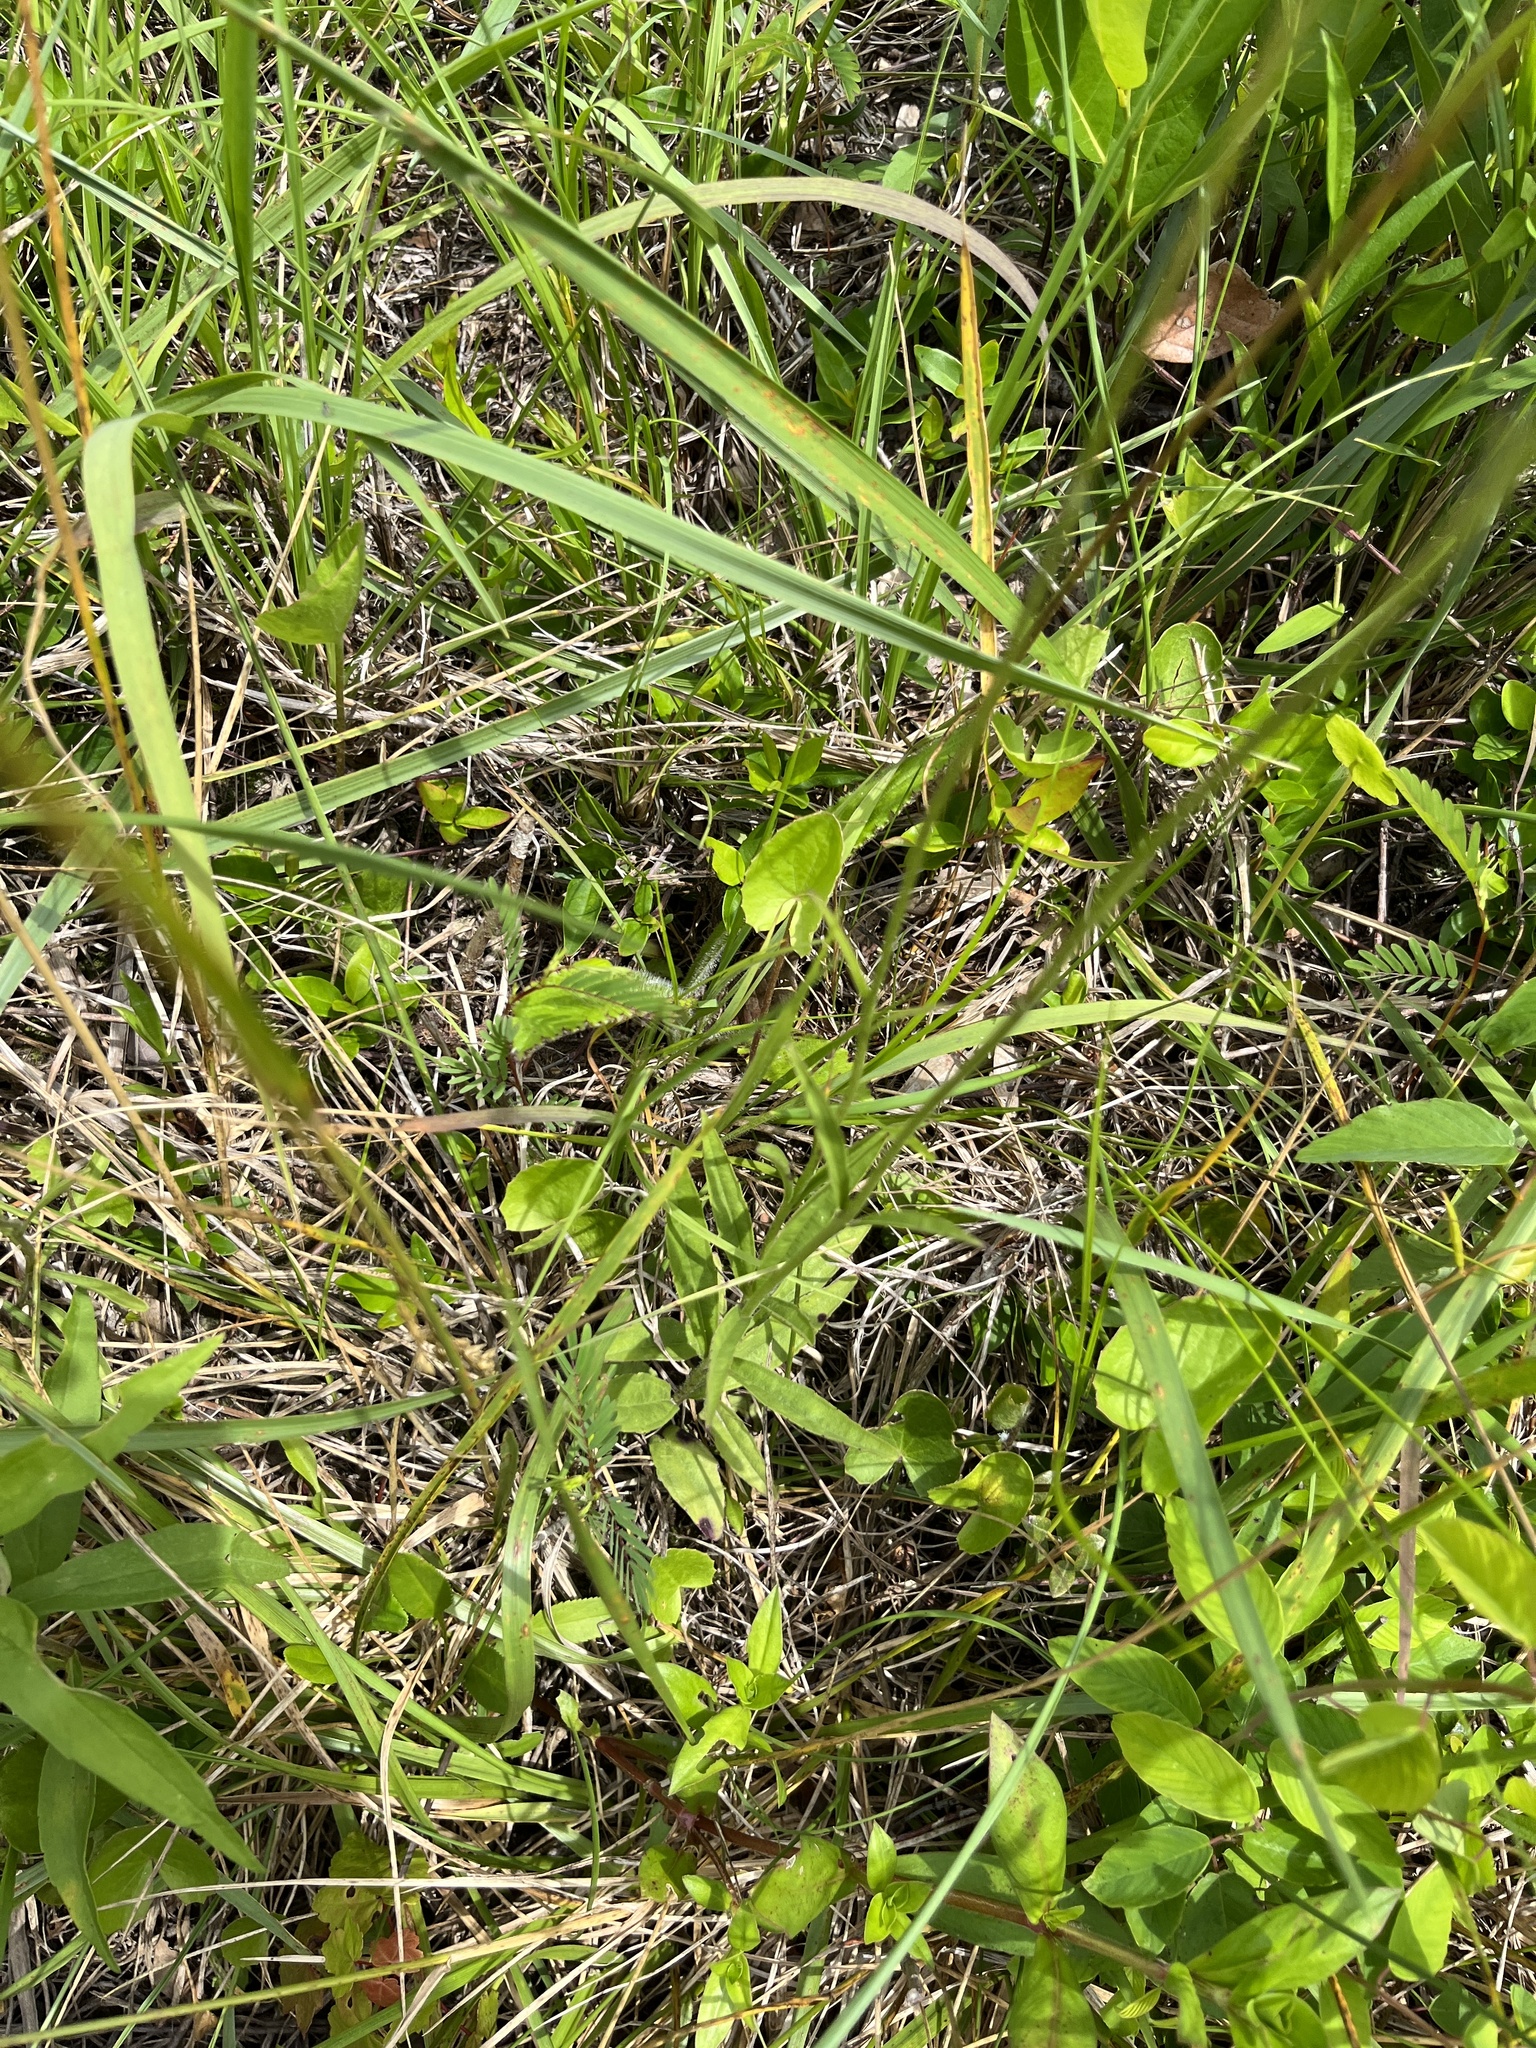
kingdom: Plantae
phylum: Tracheophyta
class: Magnoliopsida
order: Lamiales
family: Orobanchaceae
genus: Buchnera
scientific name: Buchnera floridana
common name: Florida bluehearts
